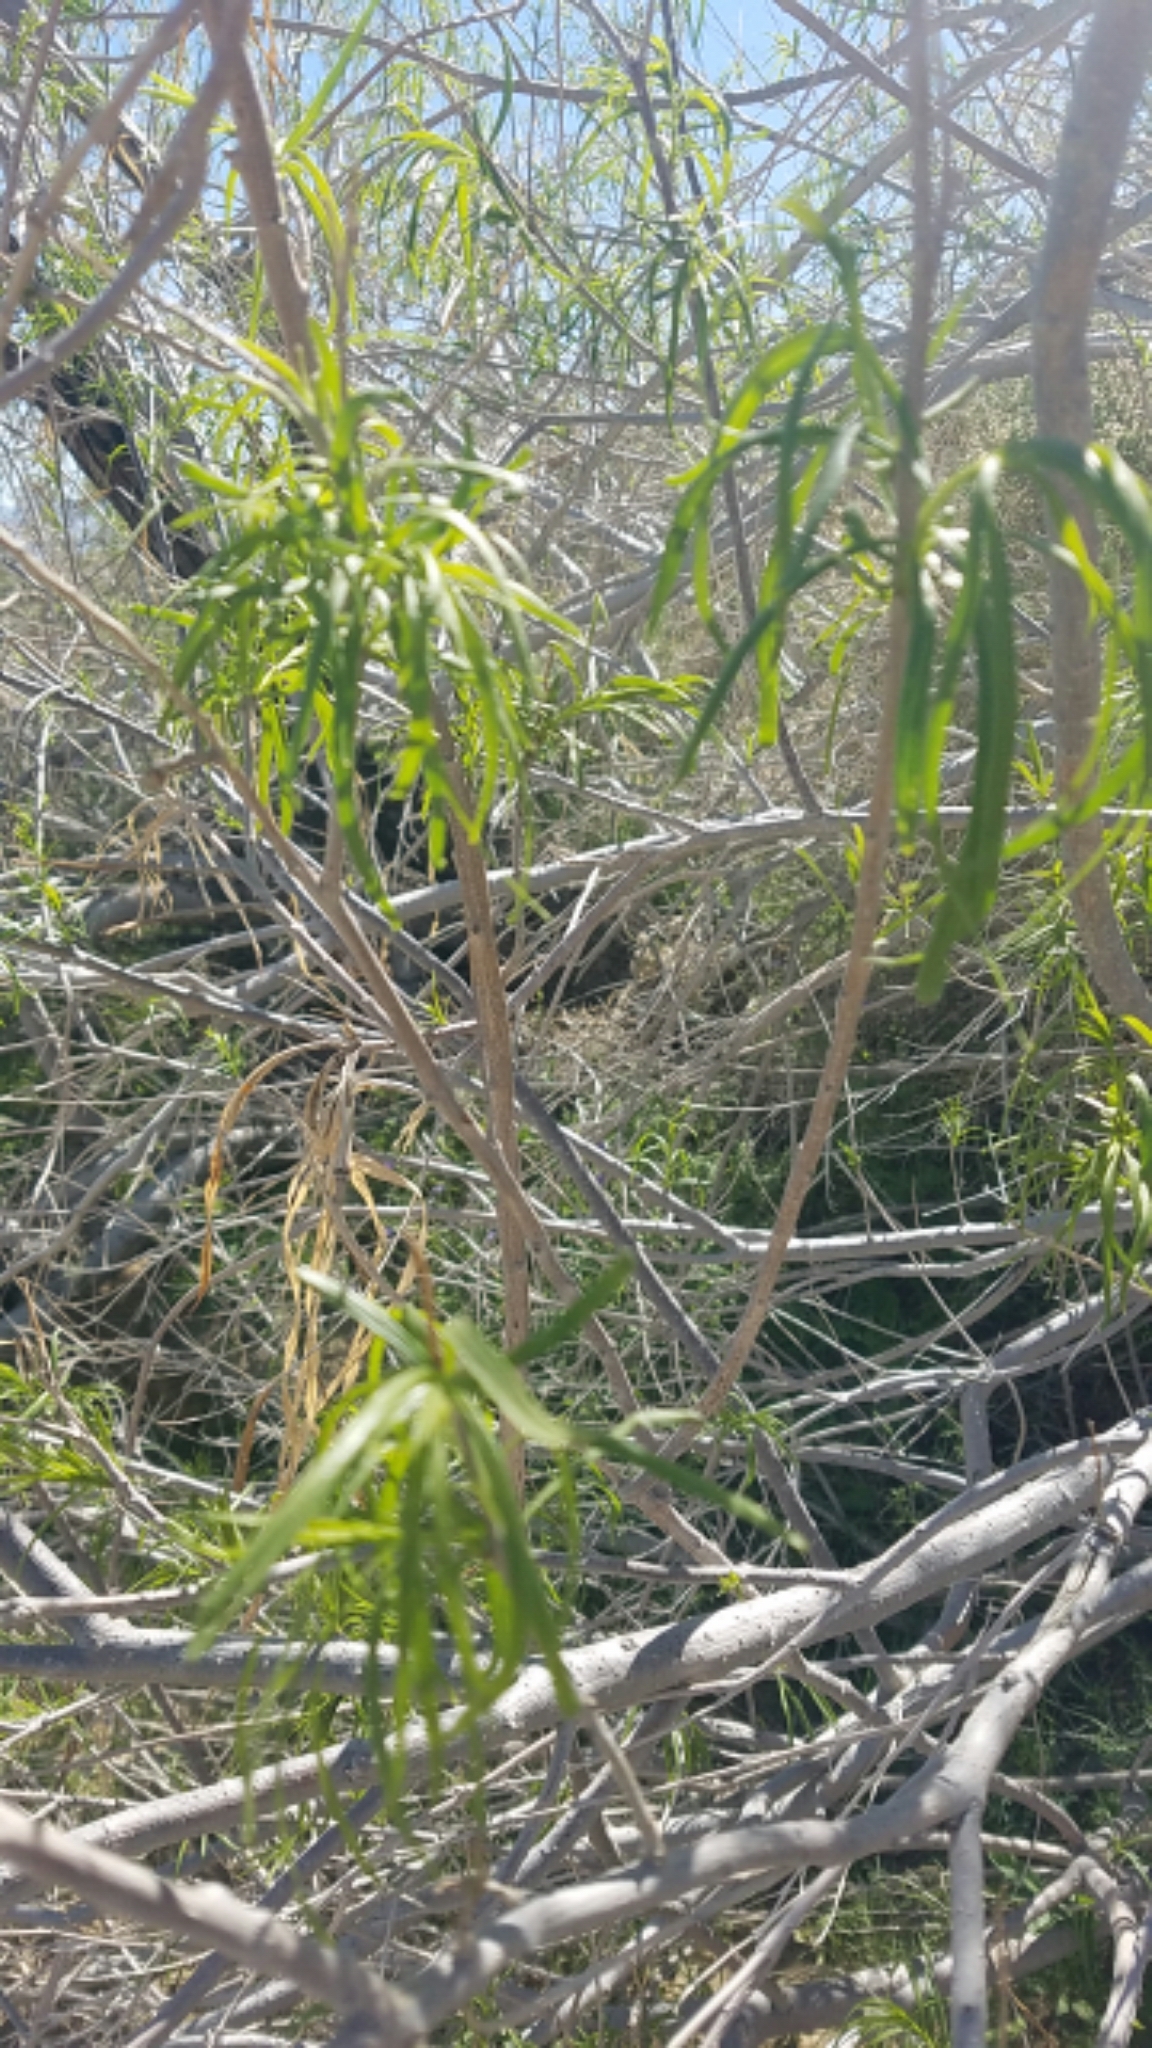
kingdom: Plantae
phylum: Tracheophyta
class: Magnoliopsida
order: Lamiales
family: Bignoniaceae
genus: Chilopsis
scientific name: Chilopsis linearis
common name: Desert-willow
